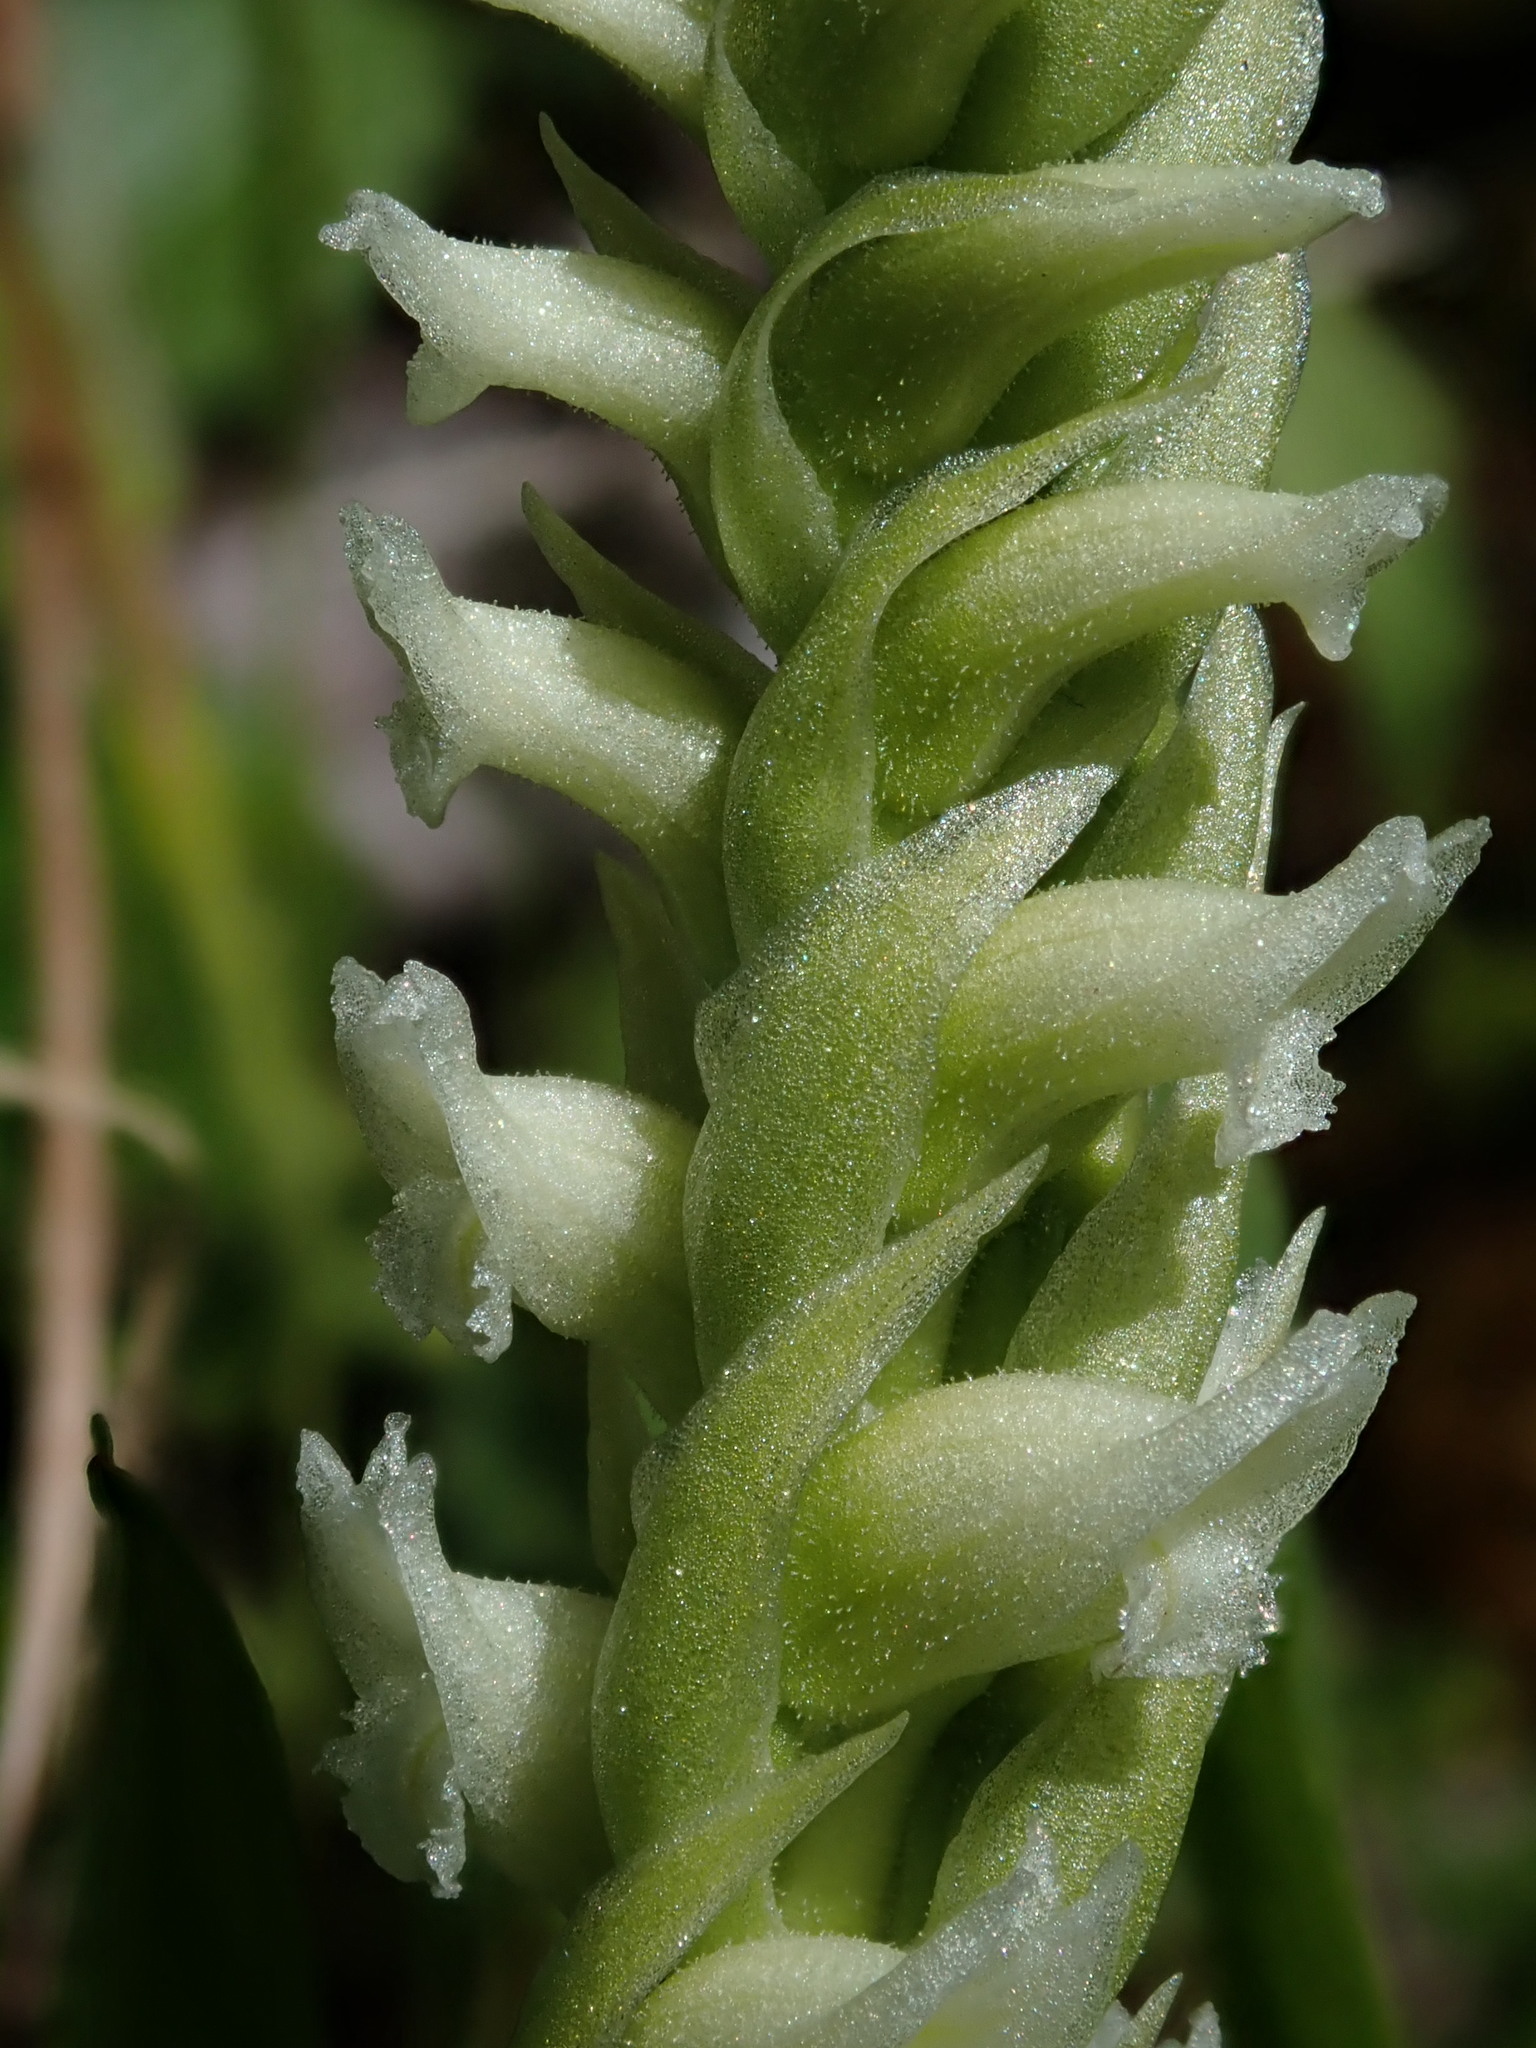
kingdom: Plantae
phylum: Tracheophyta
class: Liliopsida
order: Asparagales
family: Orchidaceae
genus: Spiranthes
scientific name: Spiranthes romanzoffiana
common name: Irish lady's-tresses
